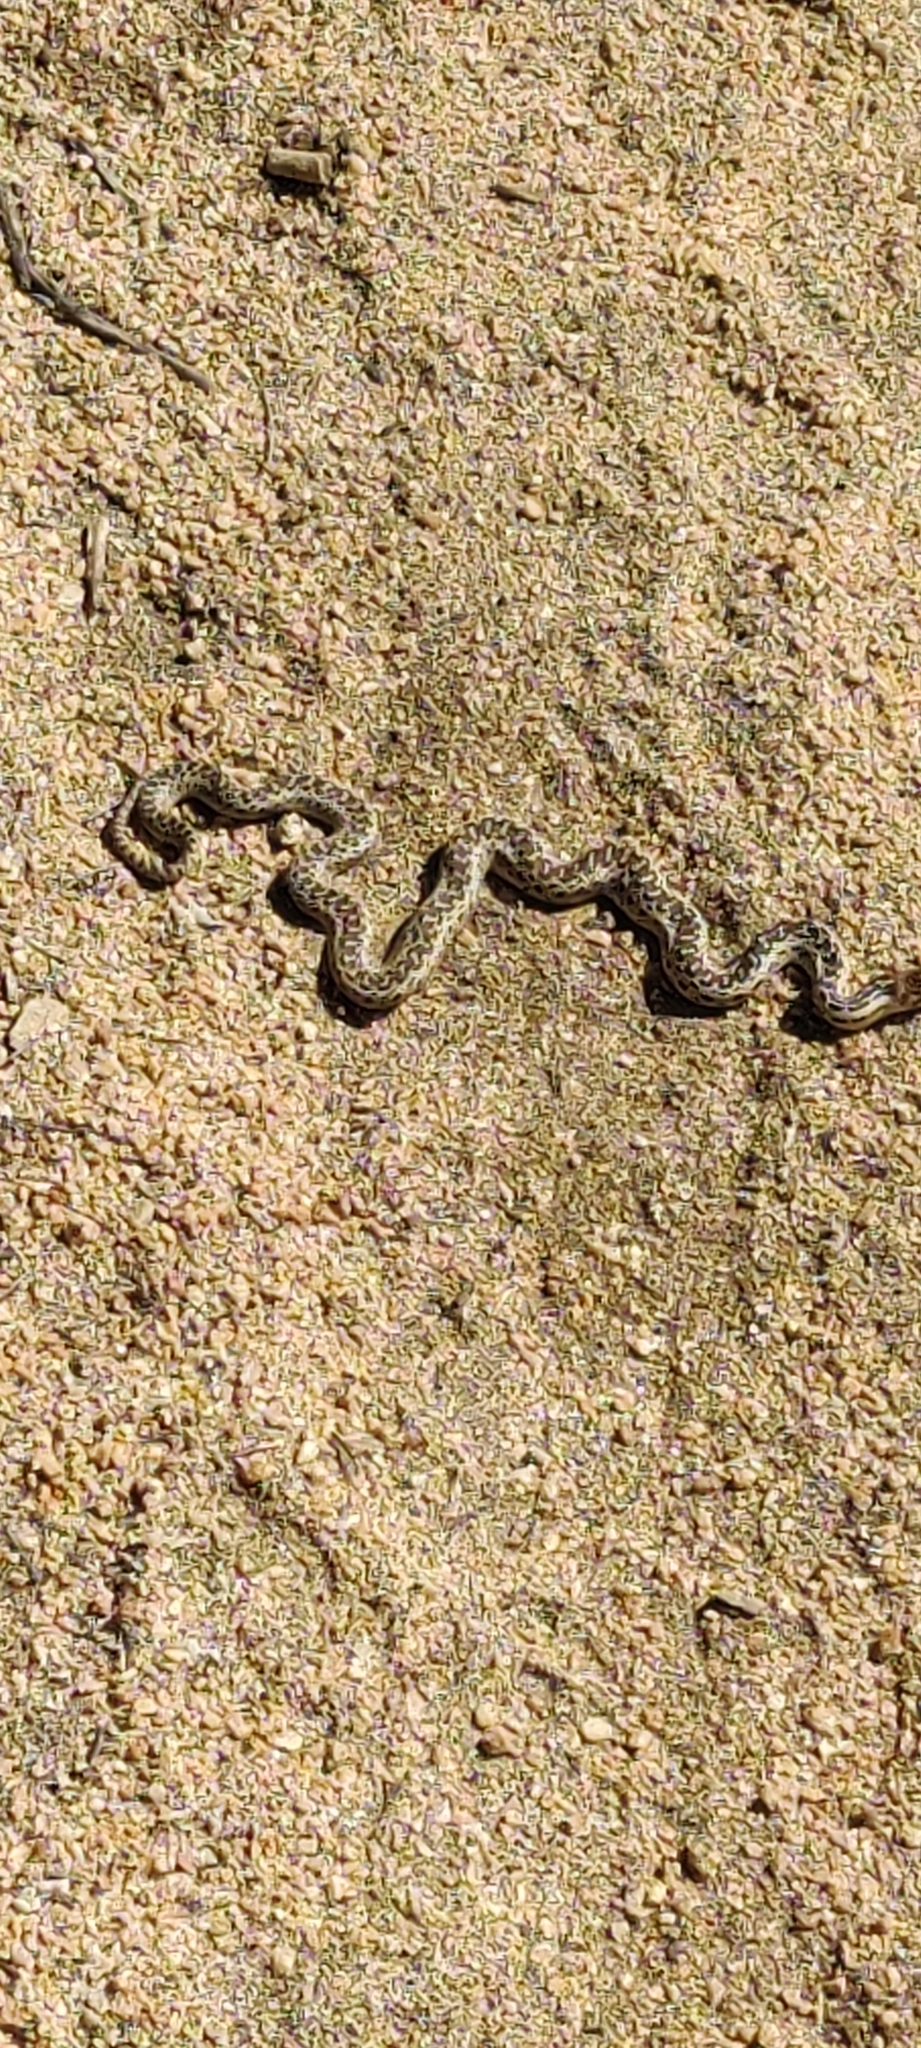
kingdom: Animalia
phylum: Chordata
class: Squamata
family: Colubridae
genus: Pituophis
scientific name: Pituophis catenifer
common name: Gopher snake
